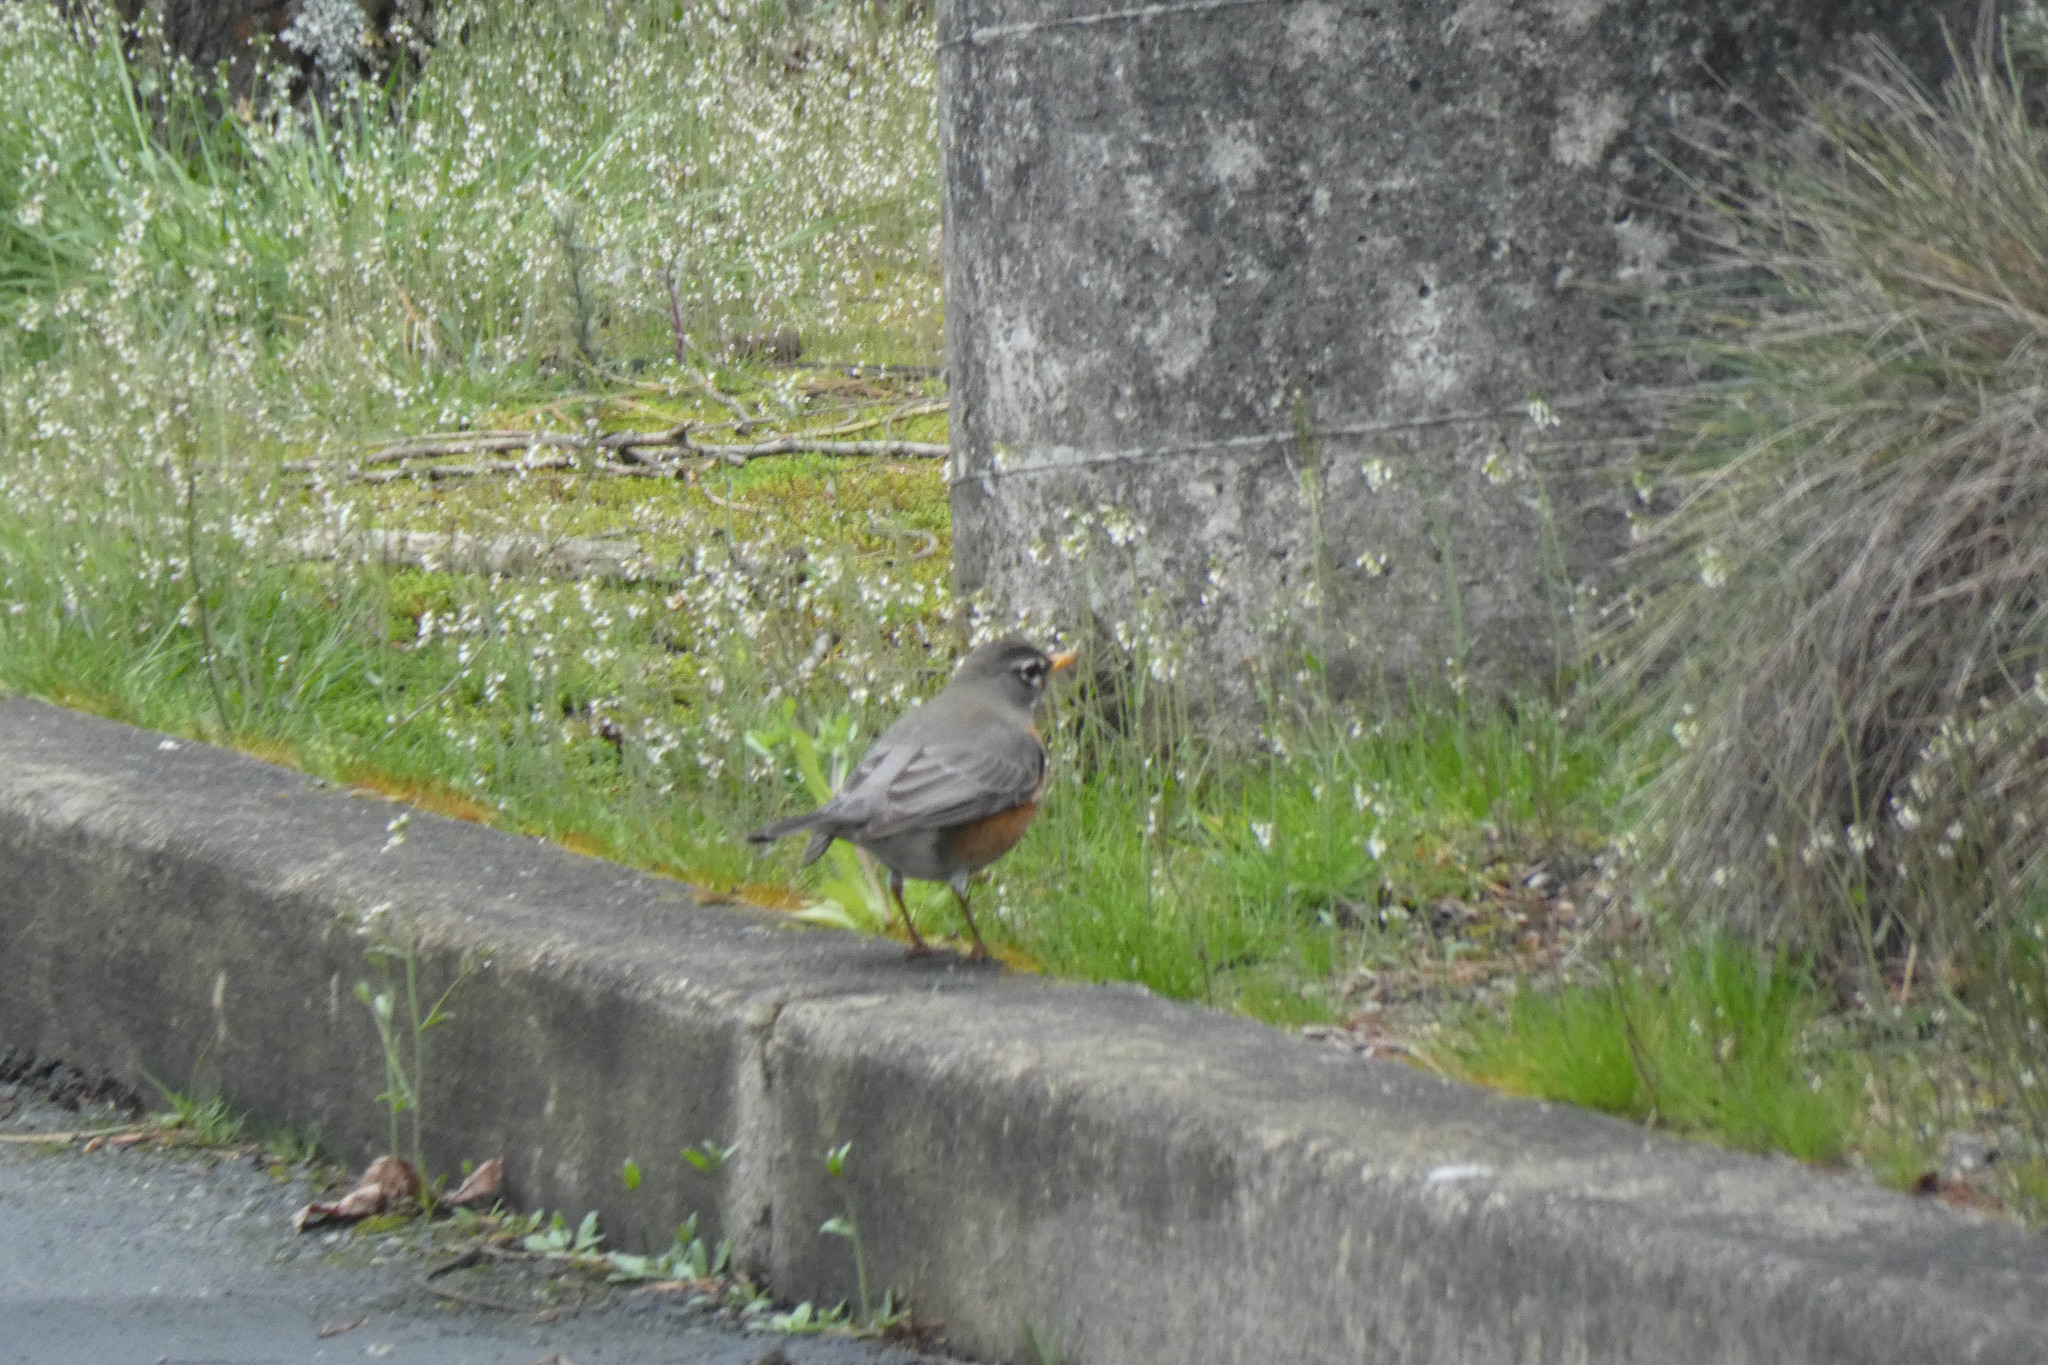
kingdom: Animalia
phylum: Chordata
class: Aves
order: Passeriformes
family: Turdidae
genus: Turdus
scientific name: Turdus migratorius
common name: American robin
